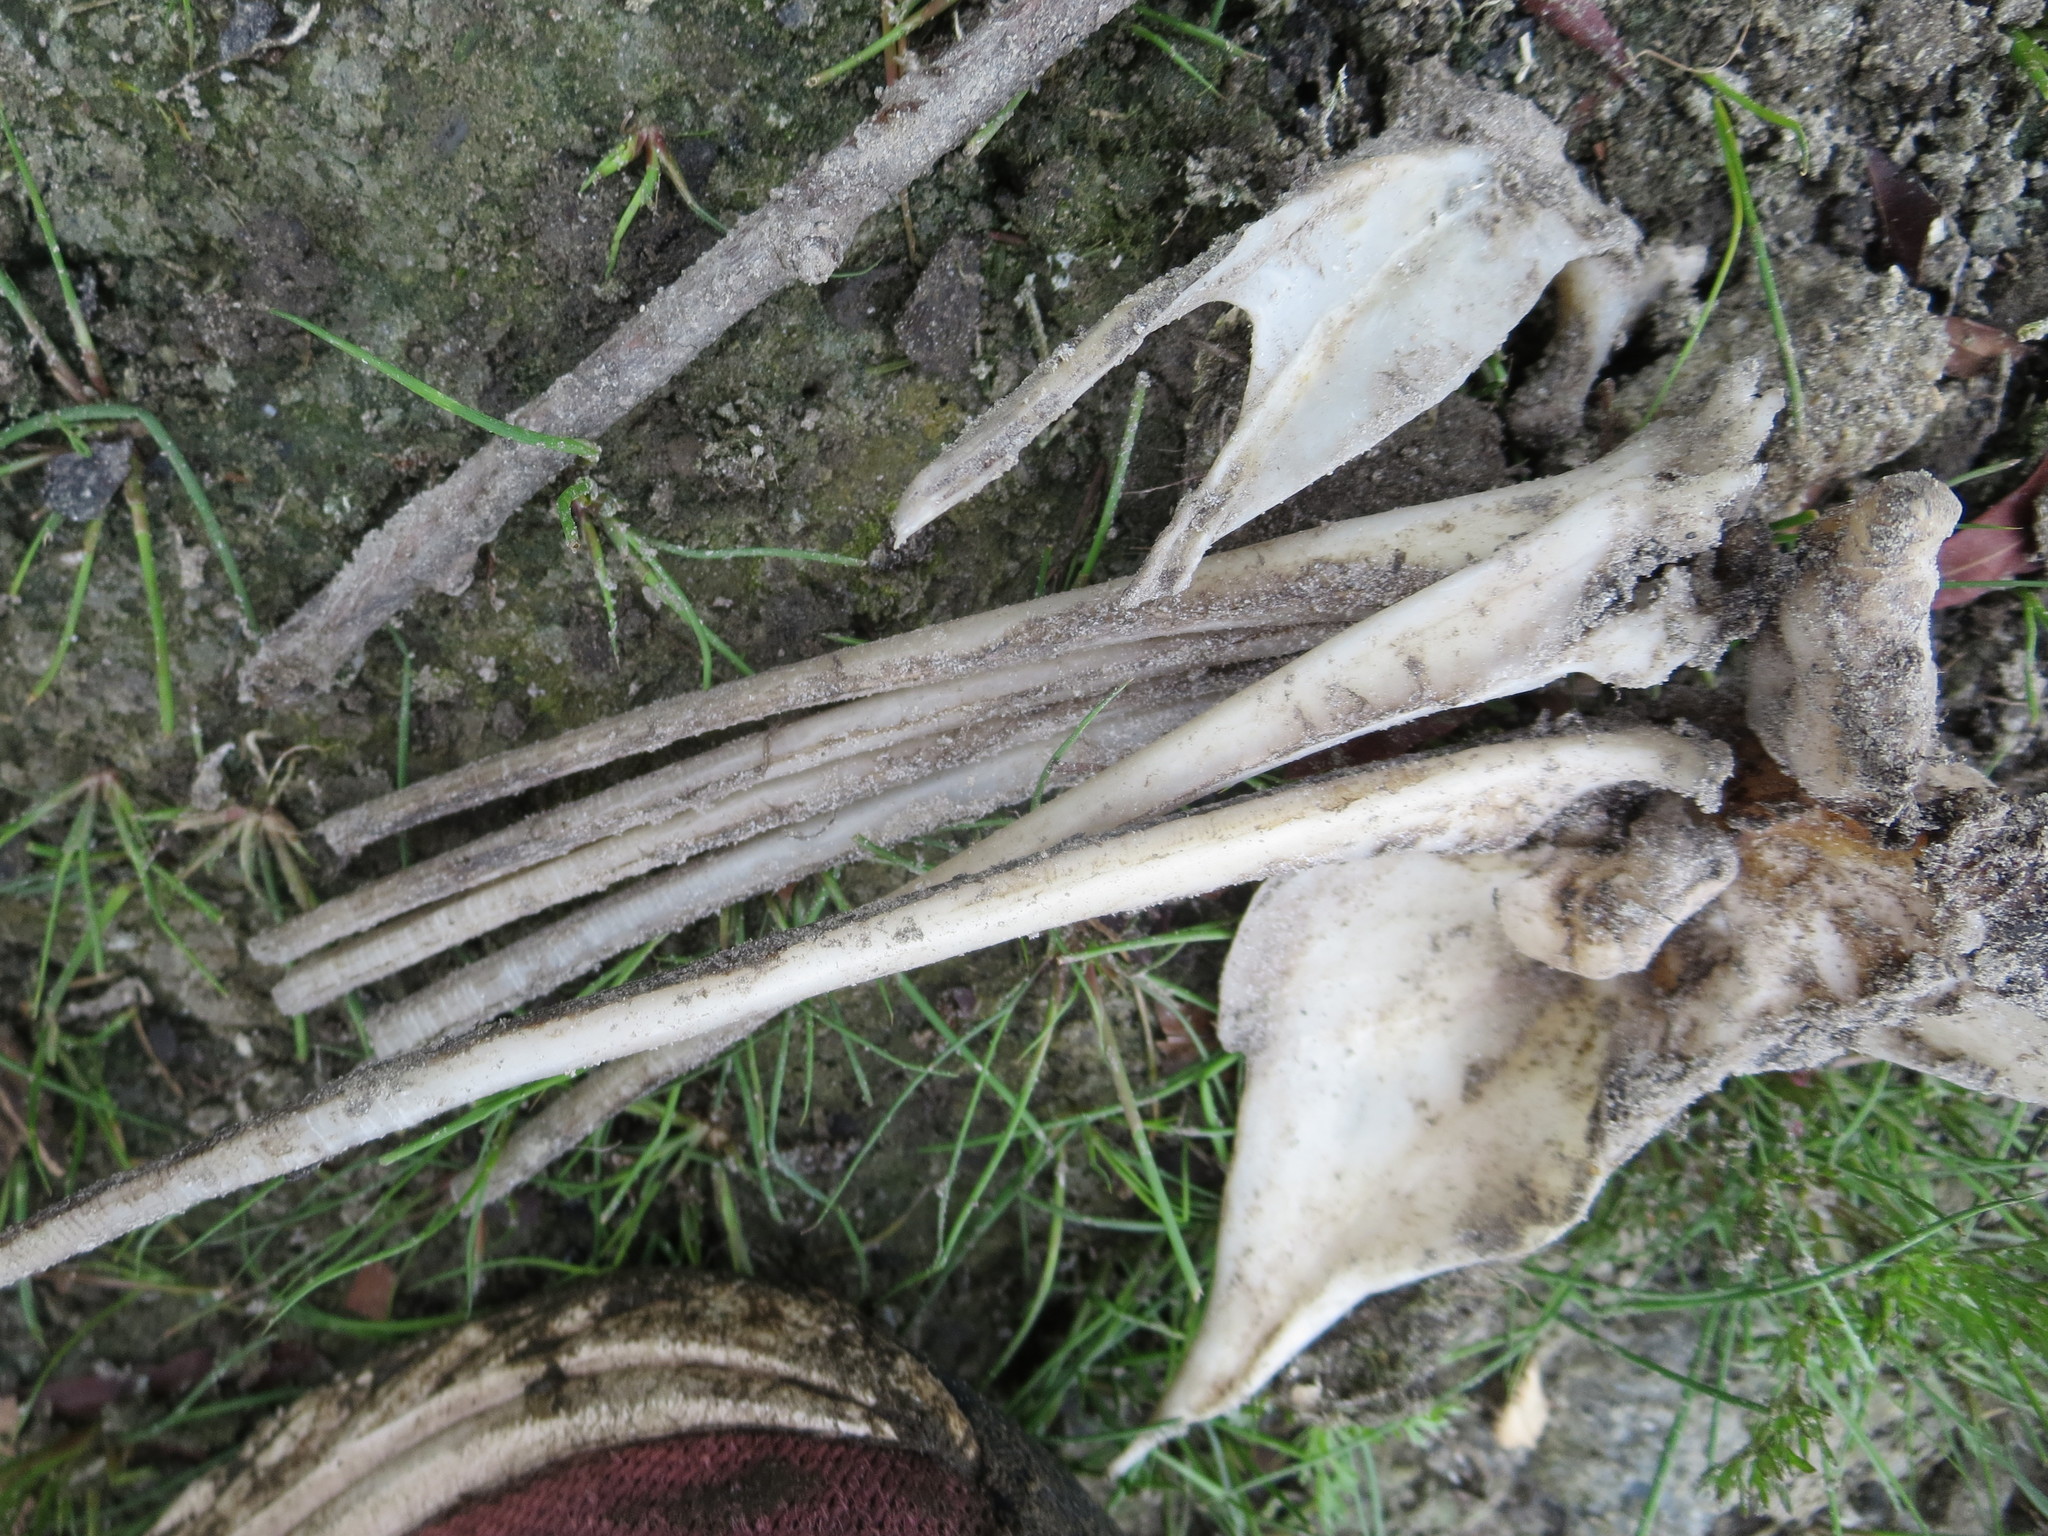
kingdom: Animalia
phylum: Chordata
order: Cypriniformes
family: Cyprinidae
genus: Ctenopharyngodon
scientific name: Ctenopharyngodon idella
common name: Grass carp
